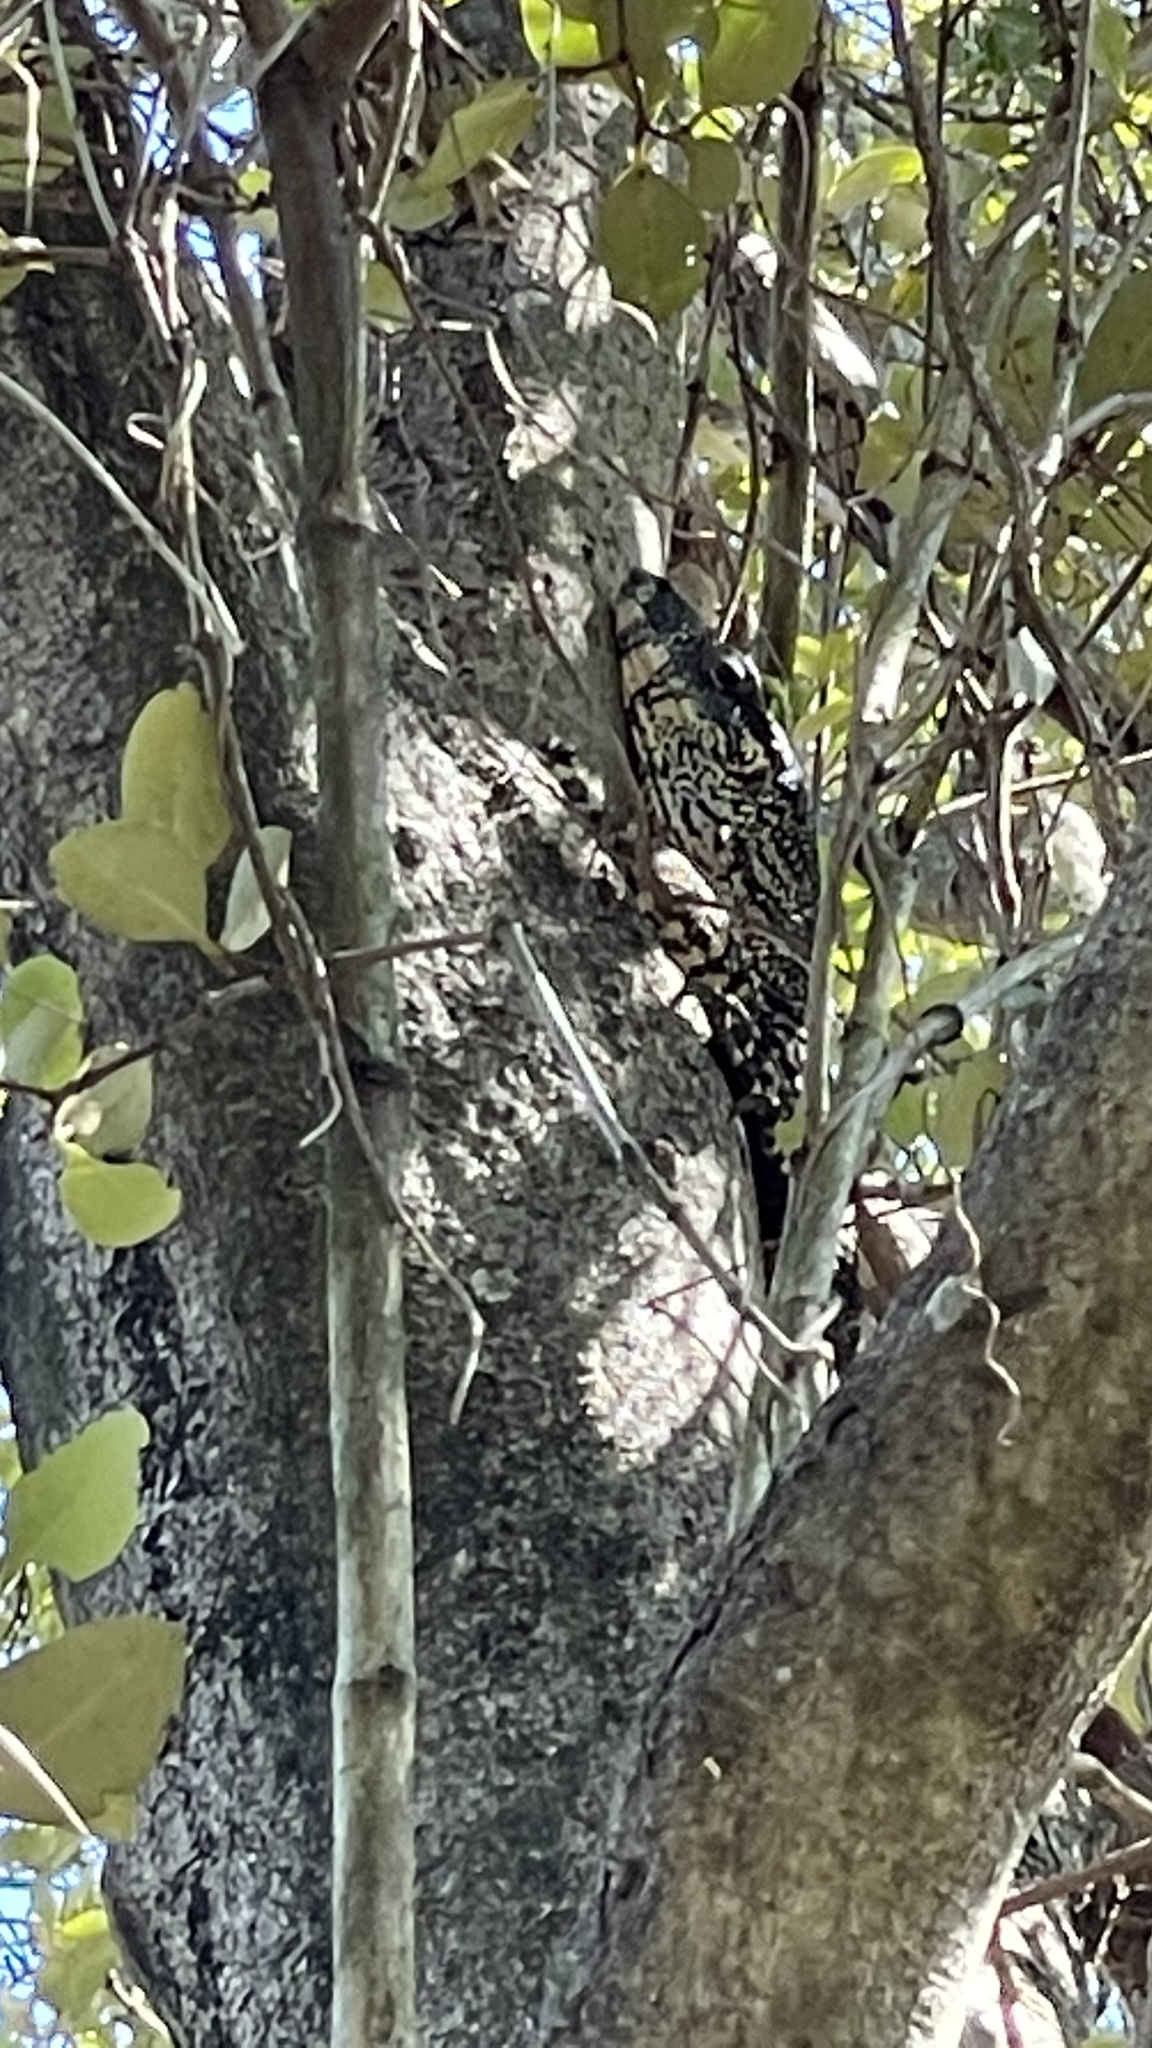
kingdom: Animalia
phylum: Chordata
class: Squamata
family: Varanidae
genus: Varanus
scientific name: Varanus varius
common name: Lace monitor
